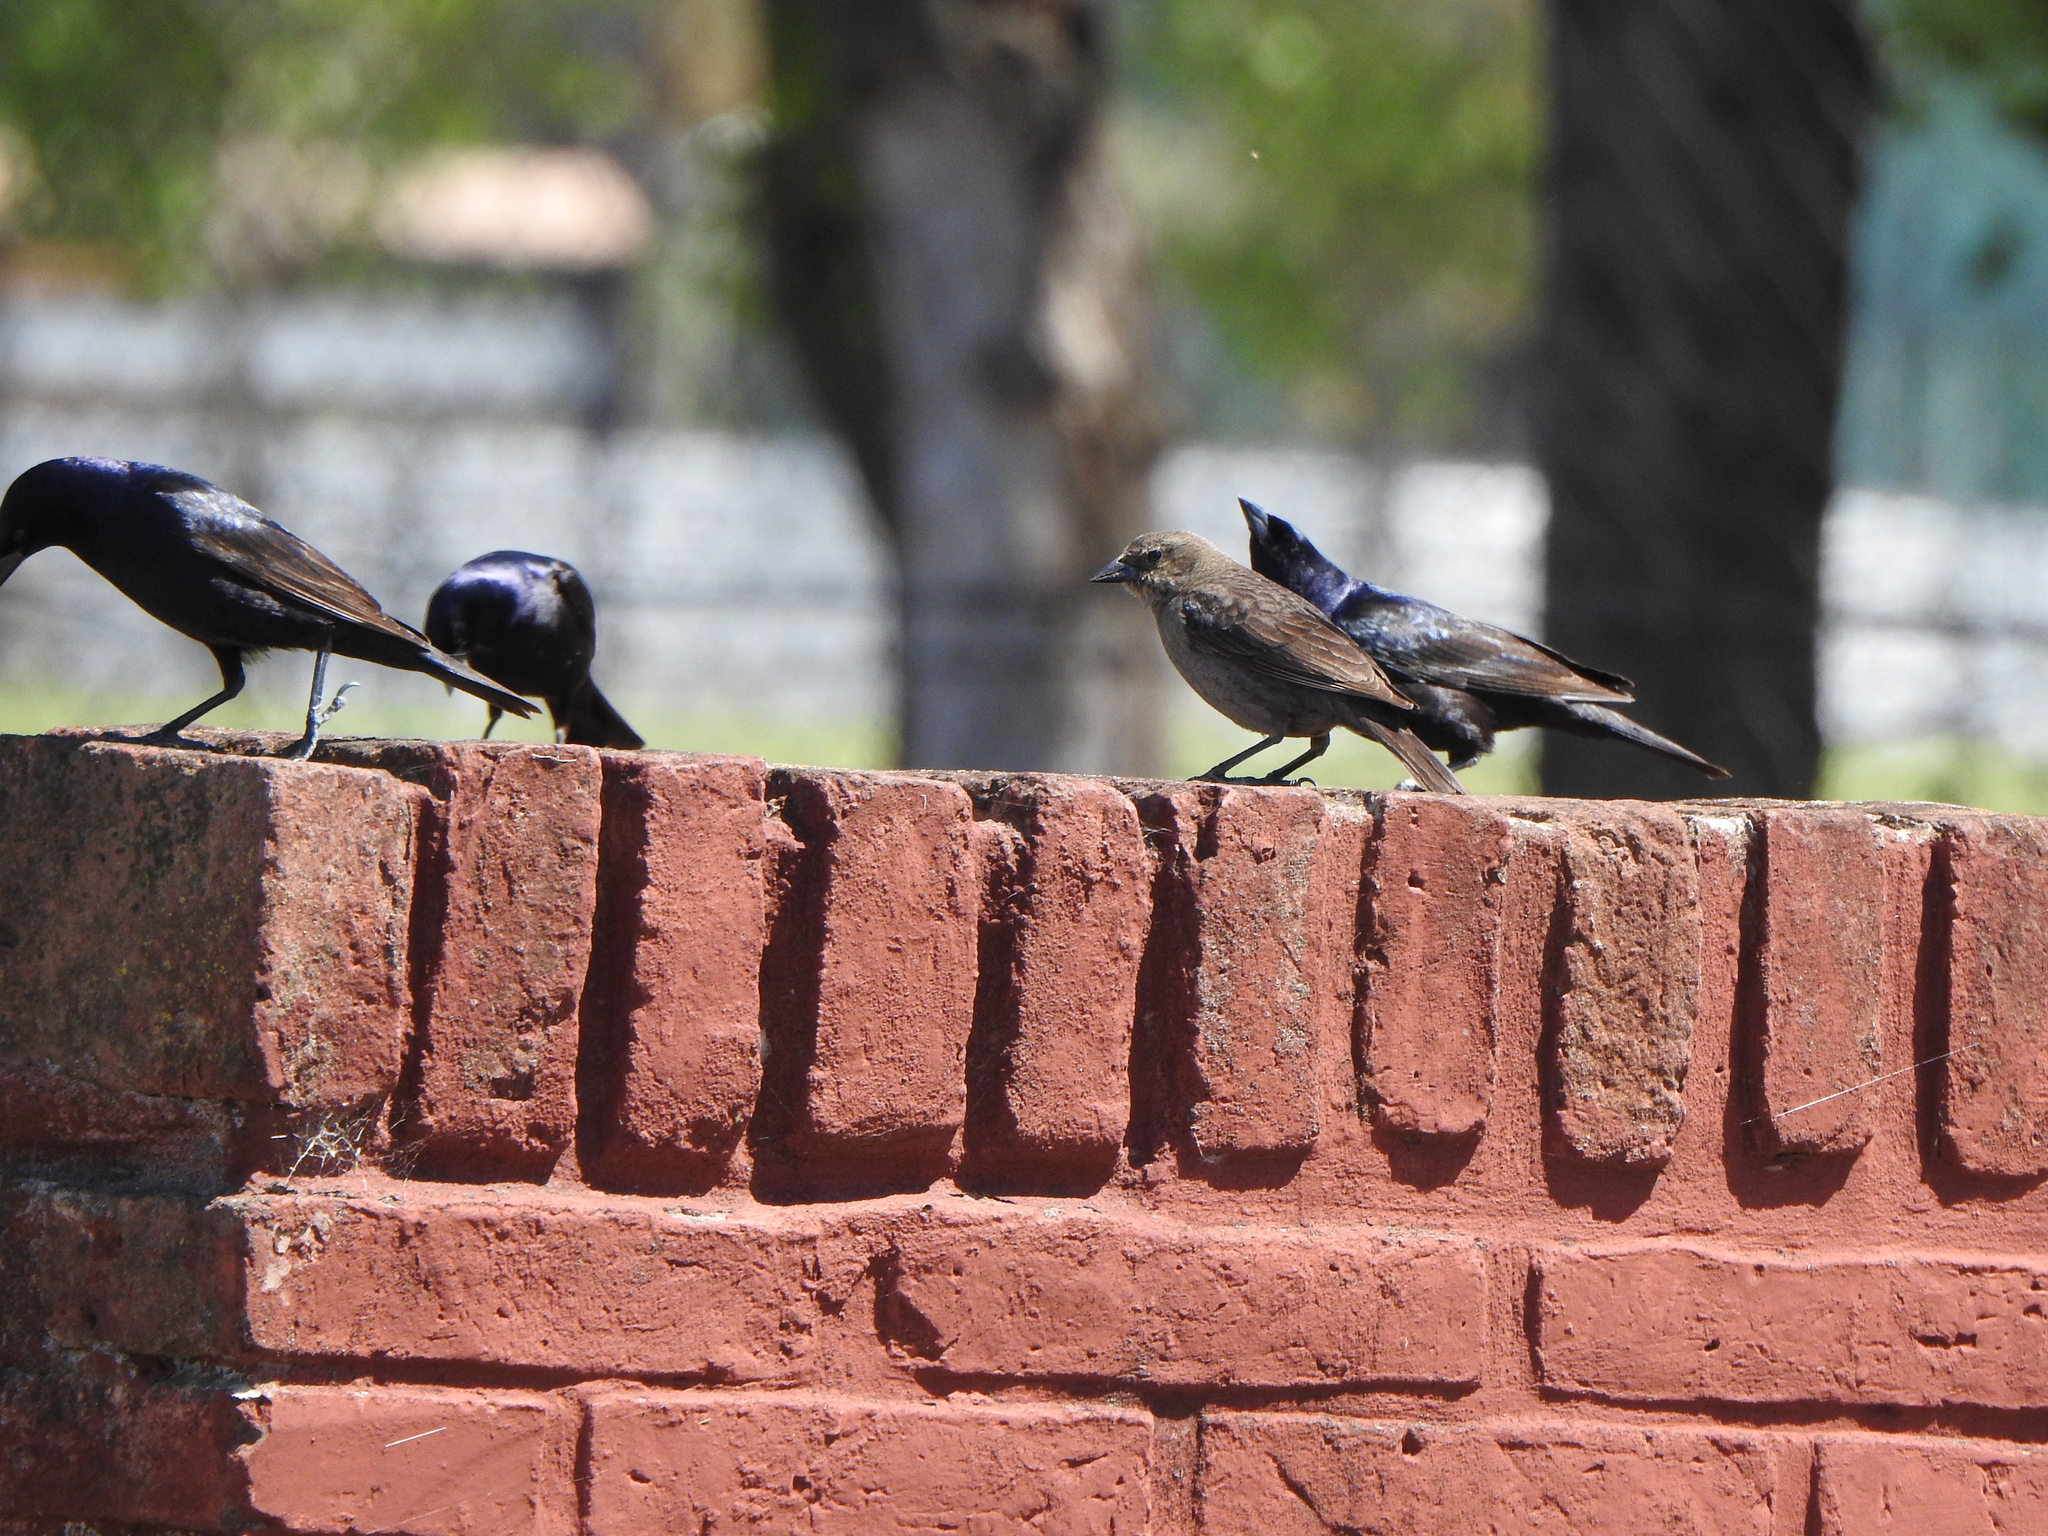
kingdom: Animalia
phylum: Chordata
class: Aves
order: Passeriformes
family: Icteridae
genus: Molothrus
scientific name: Molothrus bonariensis
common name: Shiny cowbird
